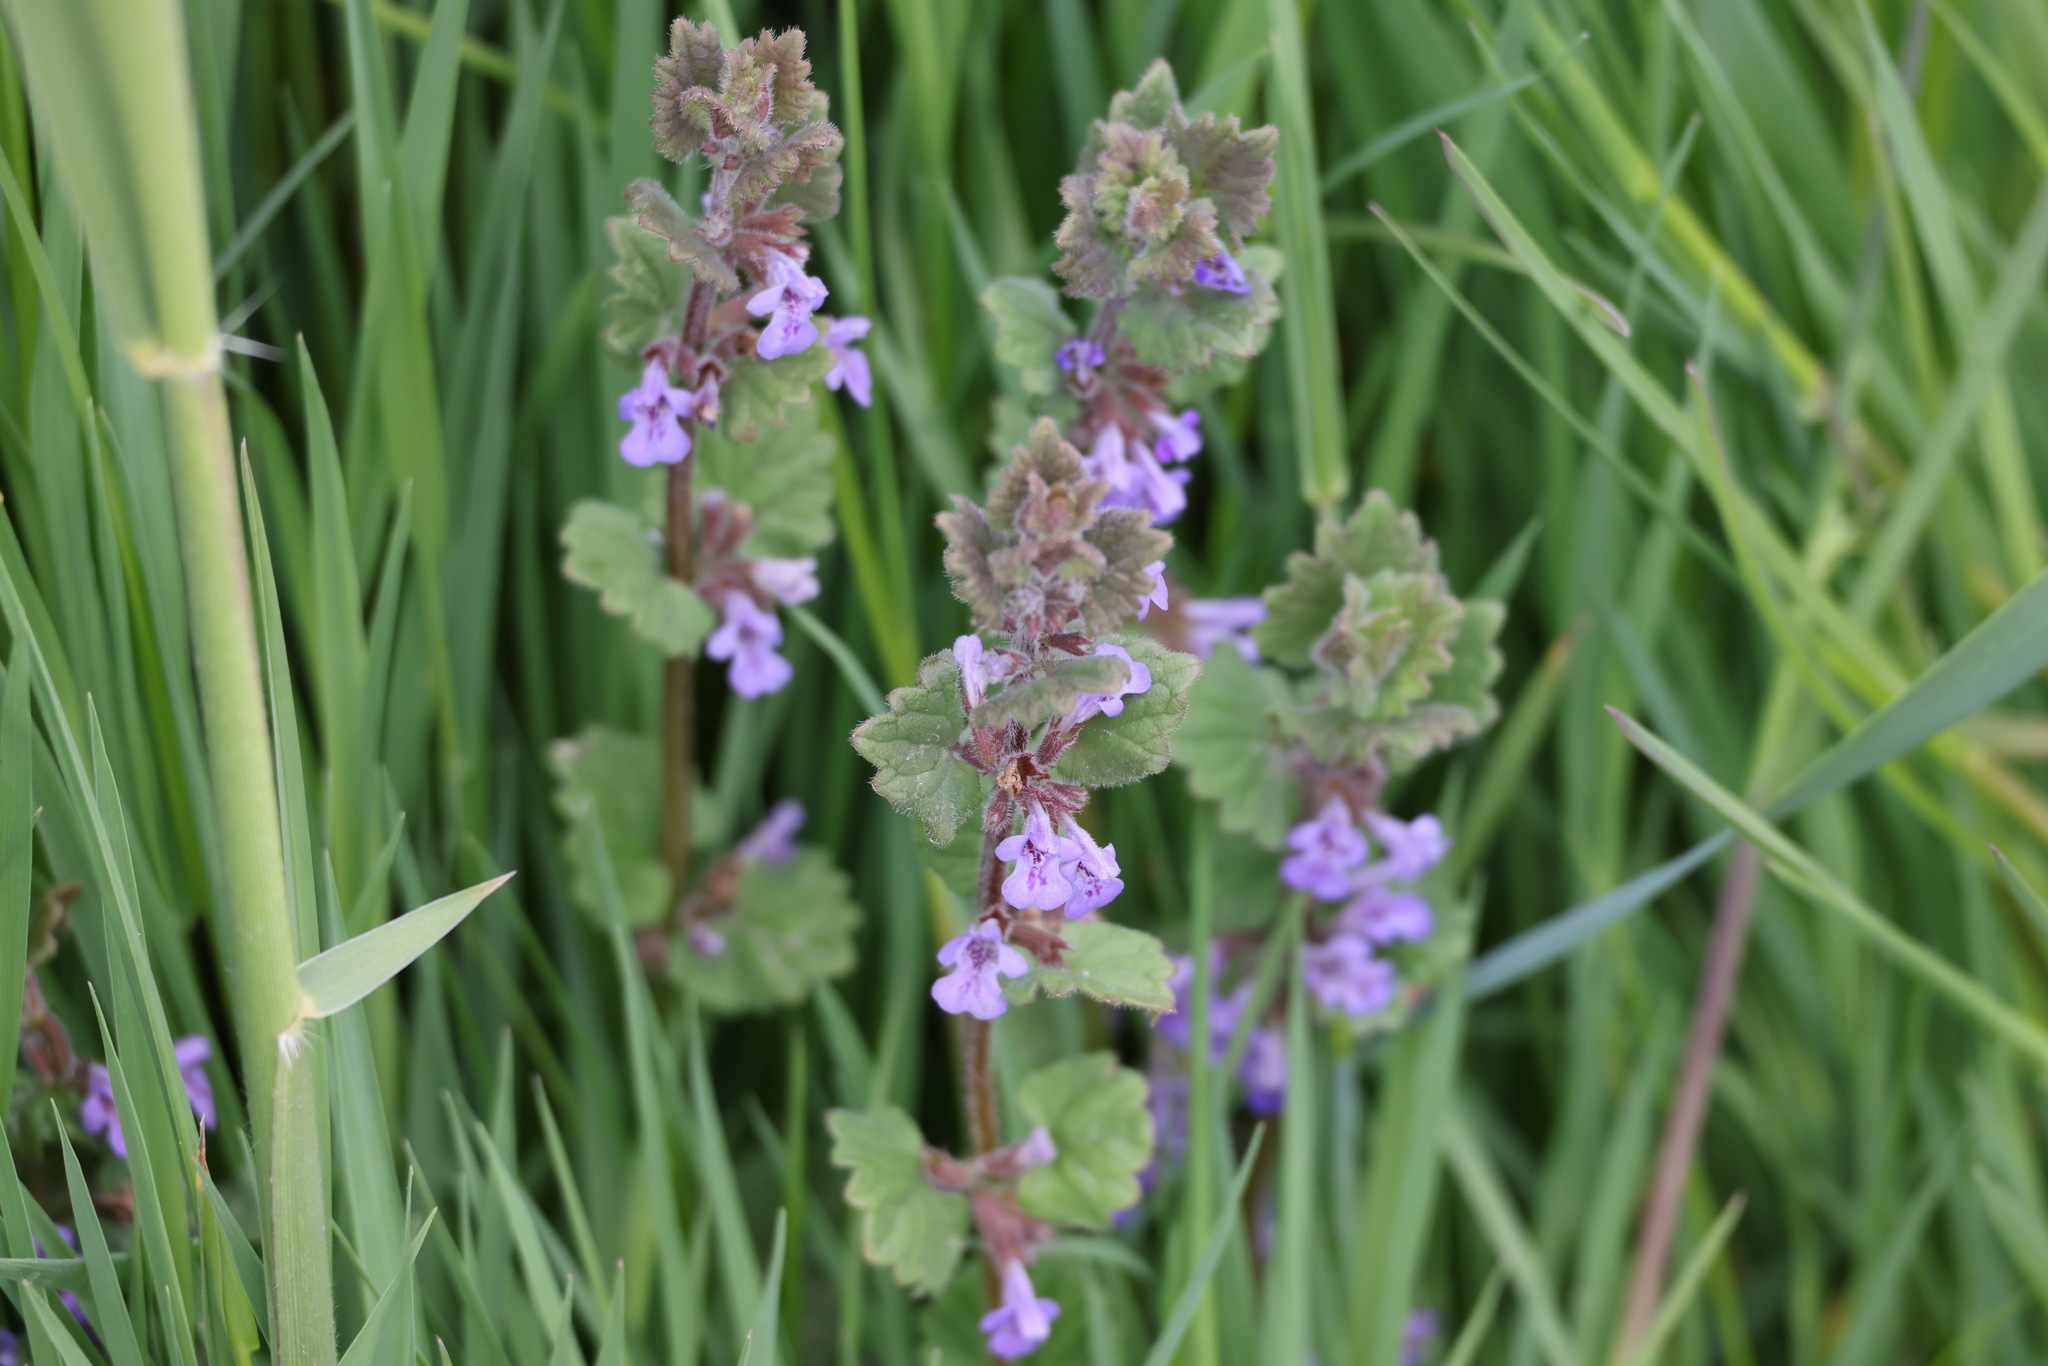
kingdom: Plantae
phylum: Tracheophyta
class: Magnoliopsida
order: Lamiales
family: Lamiaceae
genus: Glechoma
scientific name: Glechoma hederacea
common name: Ground ivy
